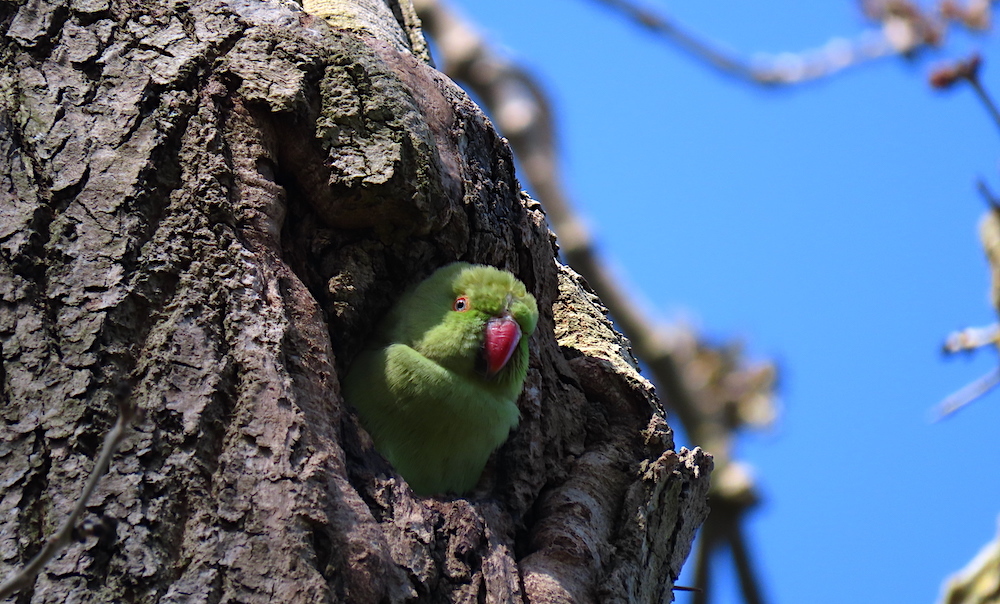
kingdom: Animalia
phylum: Chordata
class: Aves
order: Psittaciformes
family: Psittacidae
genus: Psittacula
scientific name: Psittacula krameri
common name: Rose-ringed parakeet
